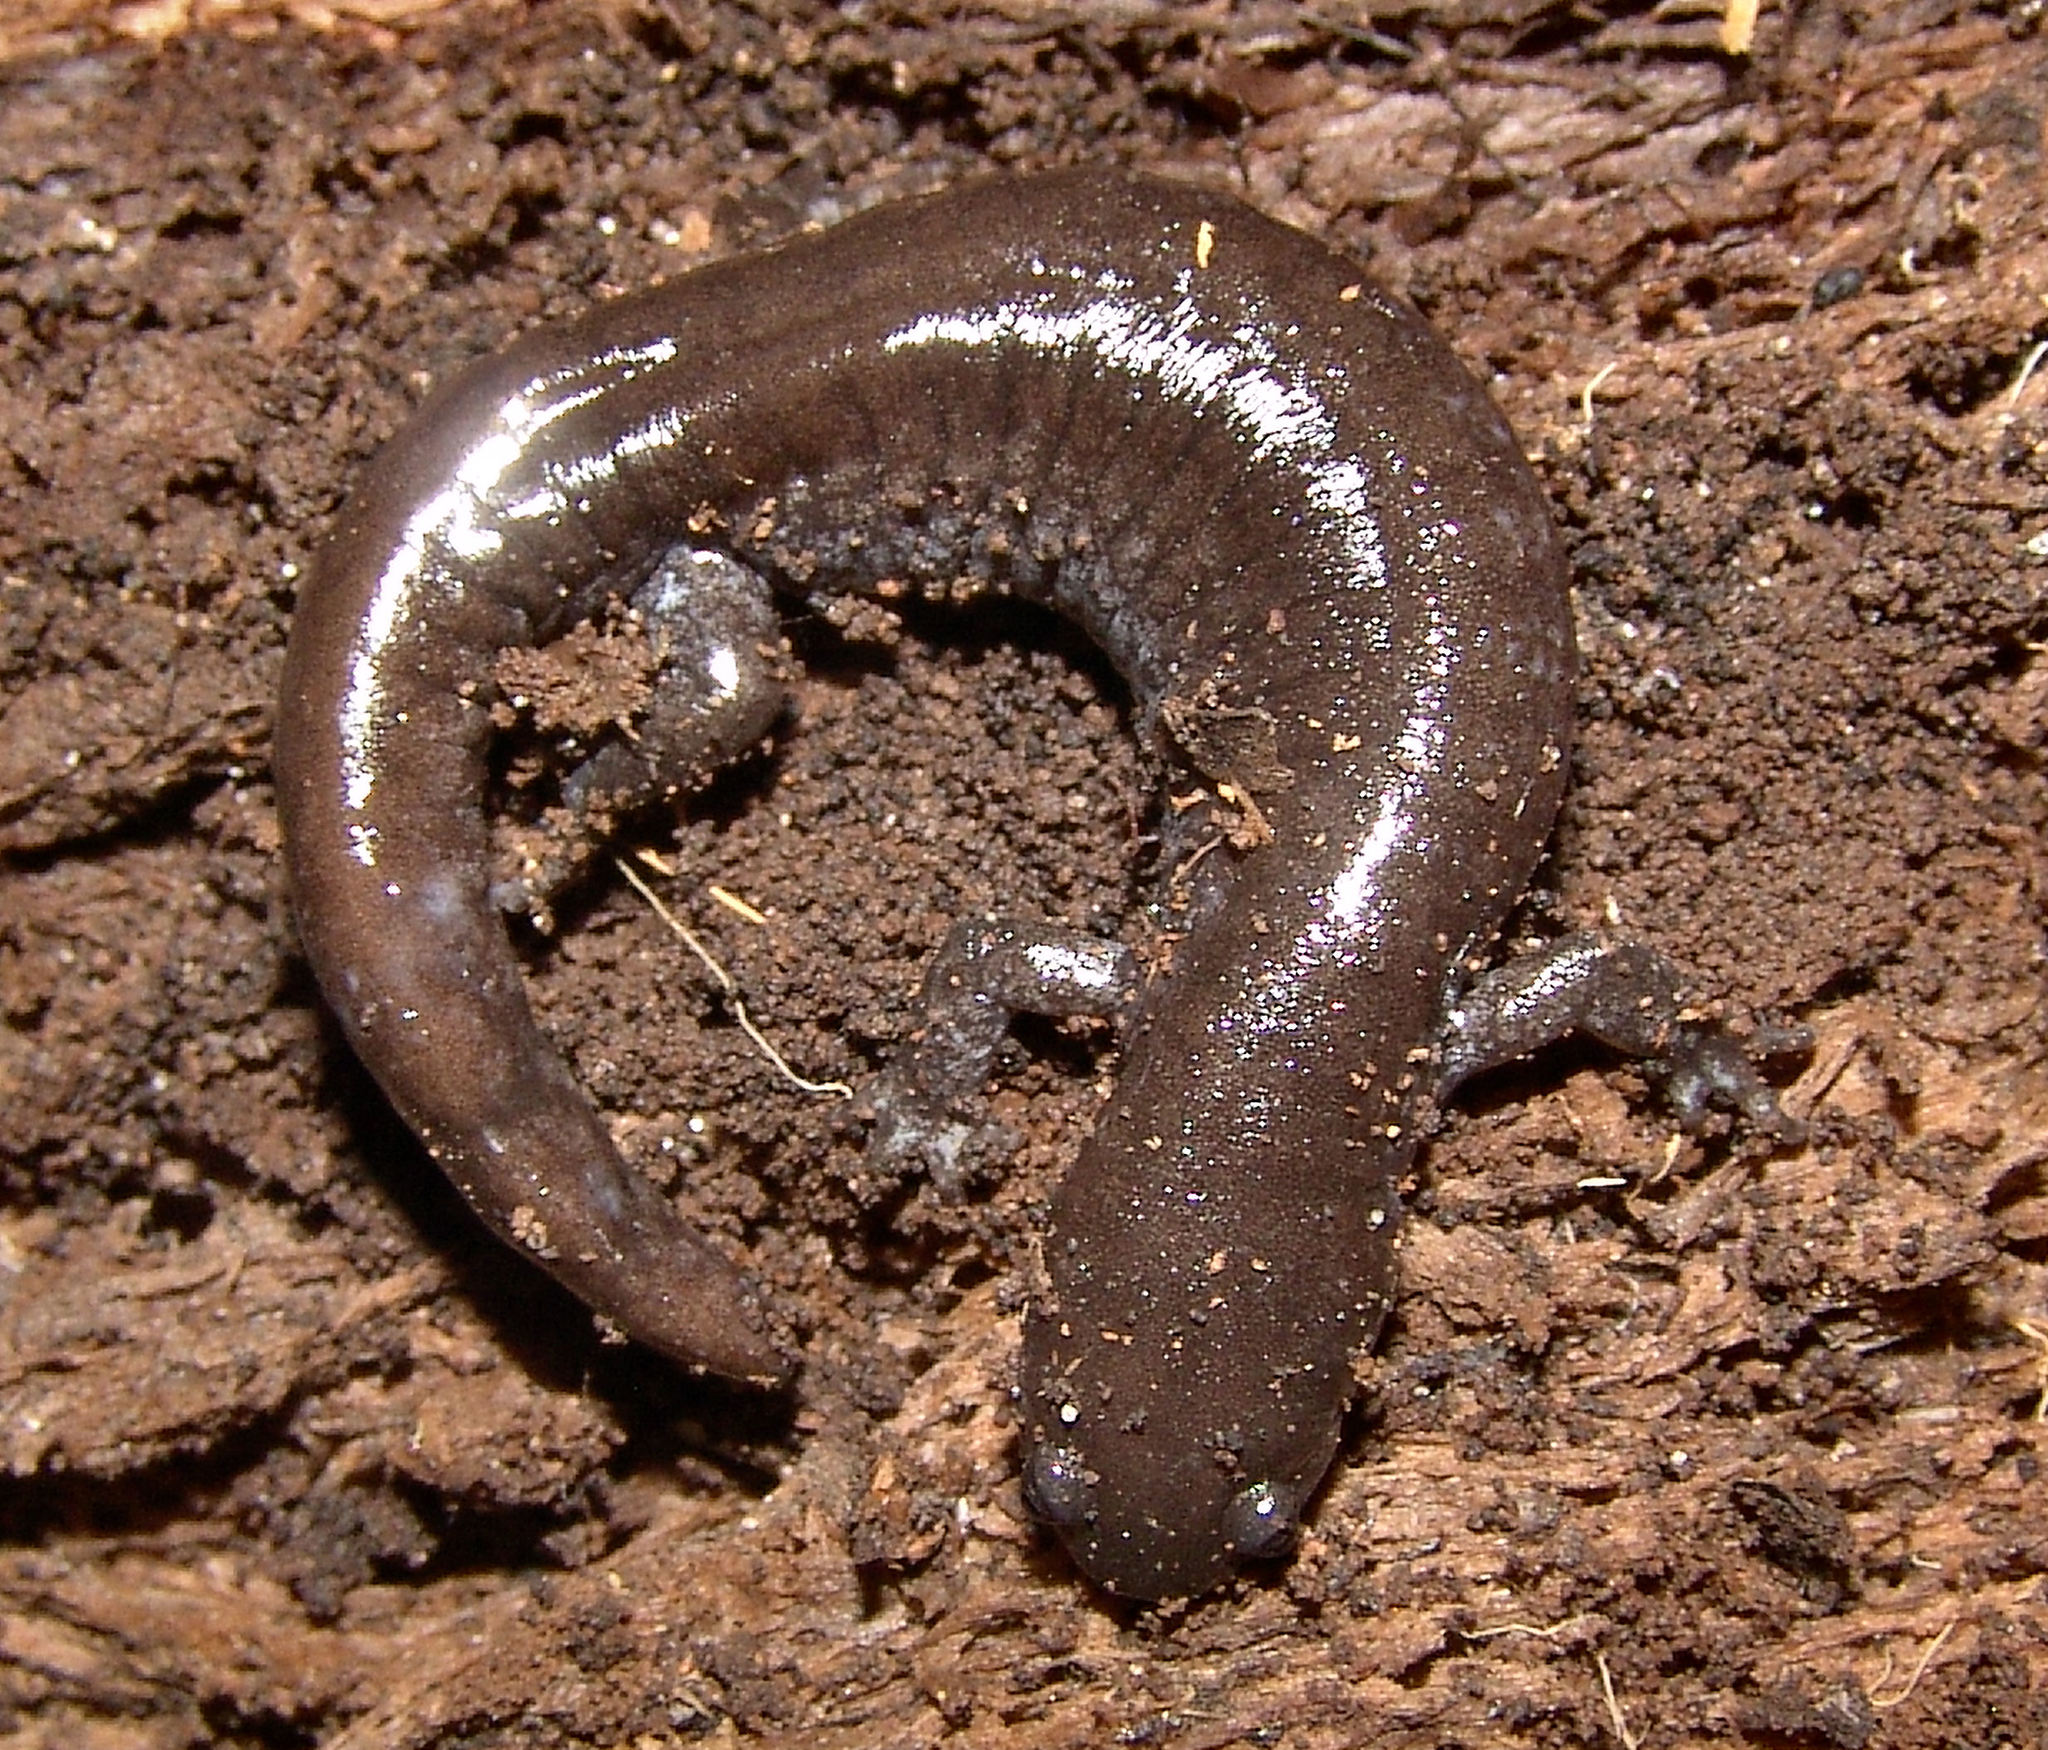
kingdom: Animalia
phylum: Chordata
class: Amphibia
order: Caudata
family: Ambystomatidae
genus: Ambystoma
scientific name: Ambystoma texanum
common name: Small-mouth salamander
